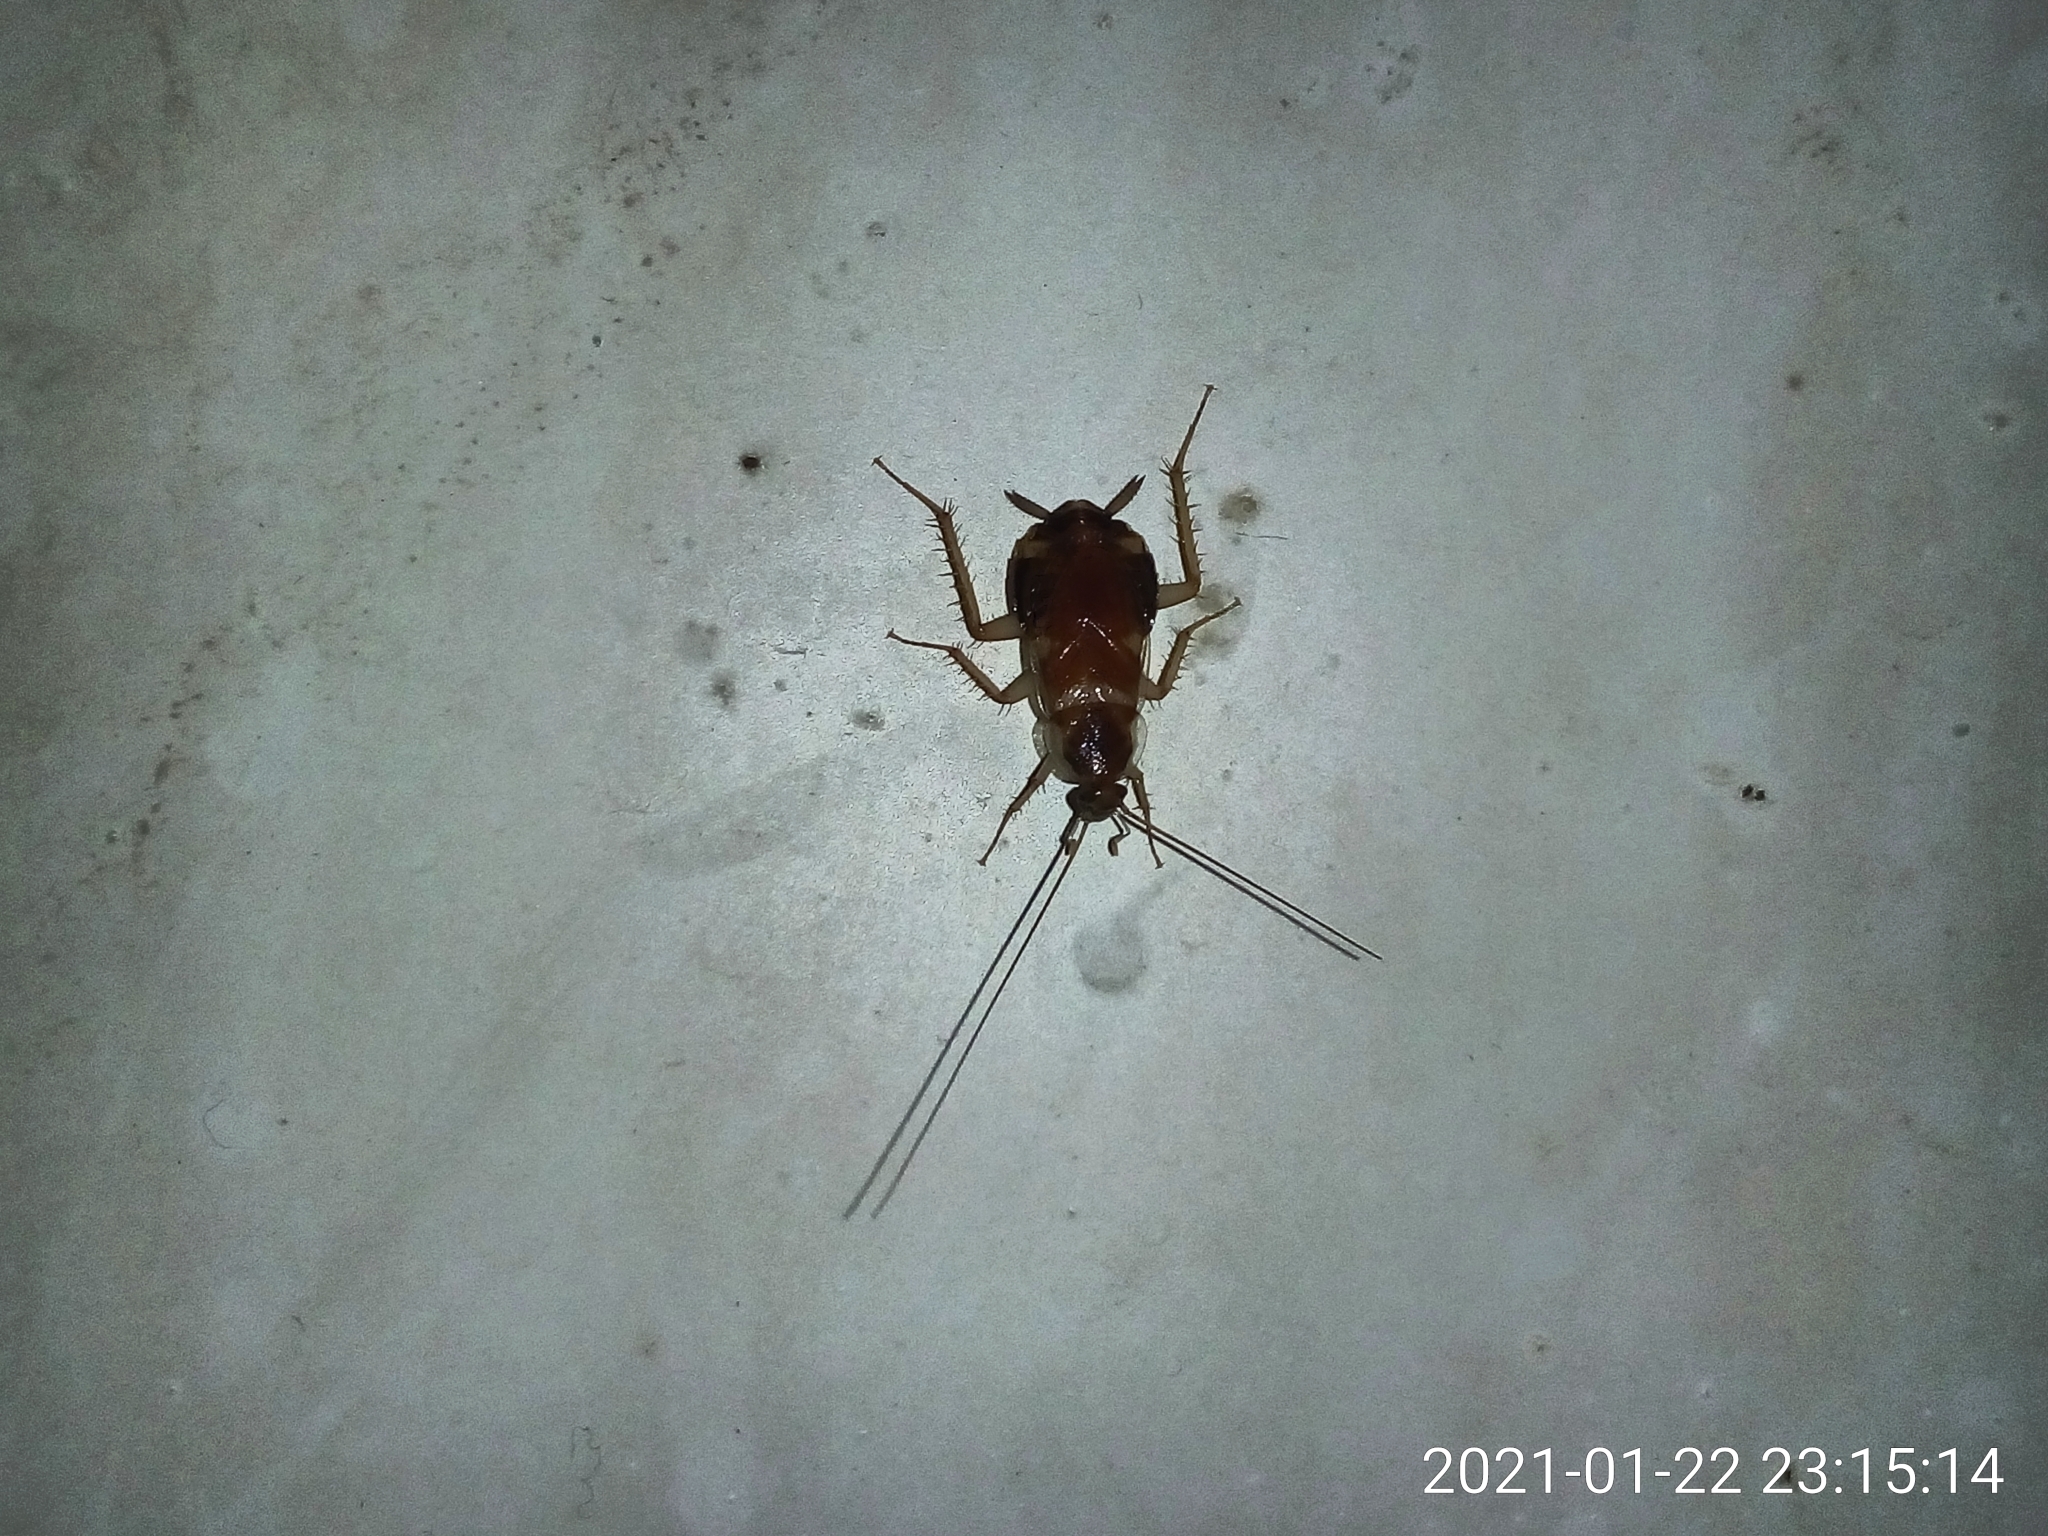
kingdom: Animalia
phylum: Arthropoda
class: Insecta
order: Blattodea
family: Ectobiidae
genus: Supella
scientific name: Supella longipalpa
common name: Brown-banded cockroach
